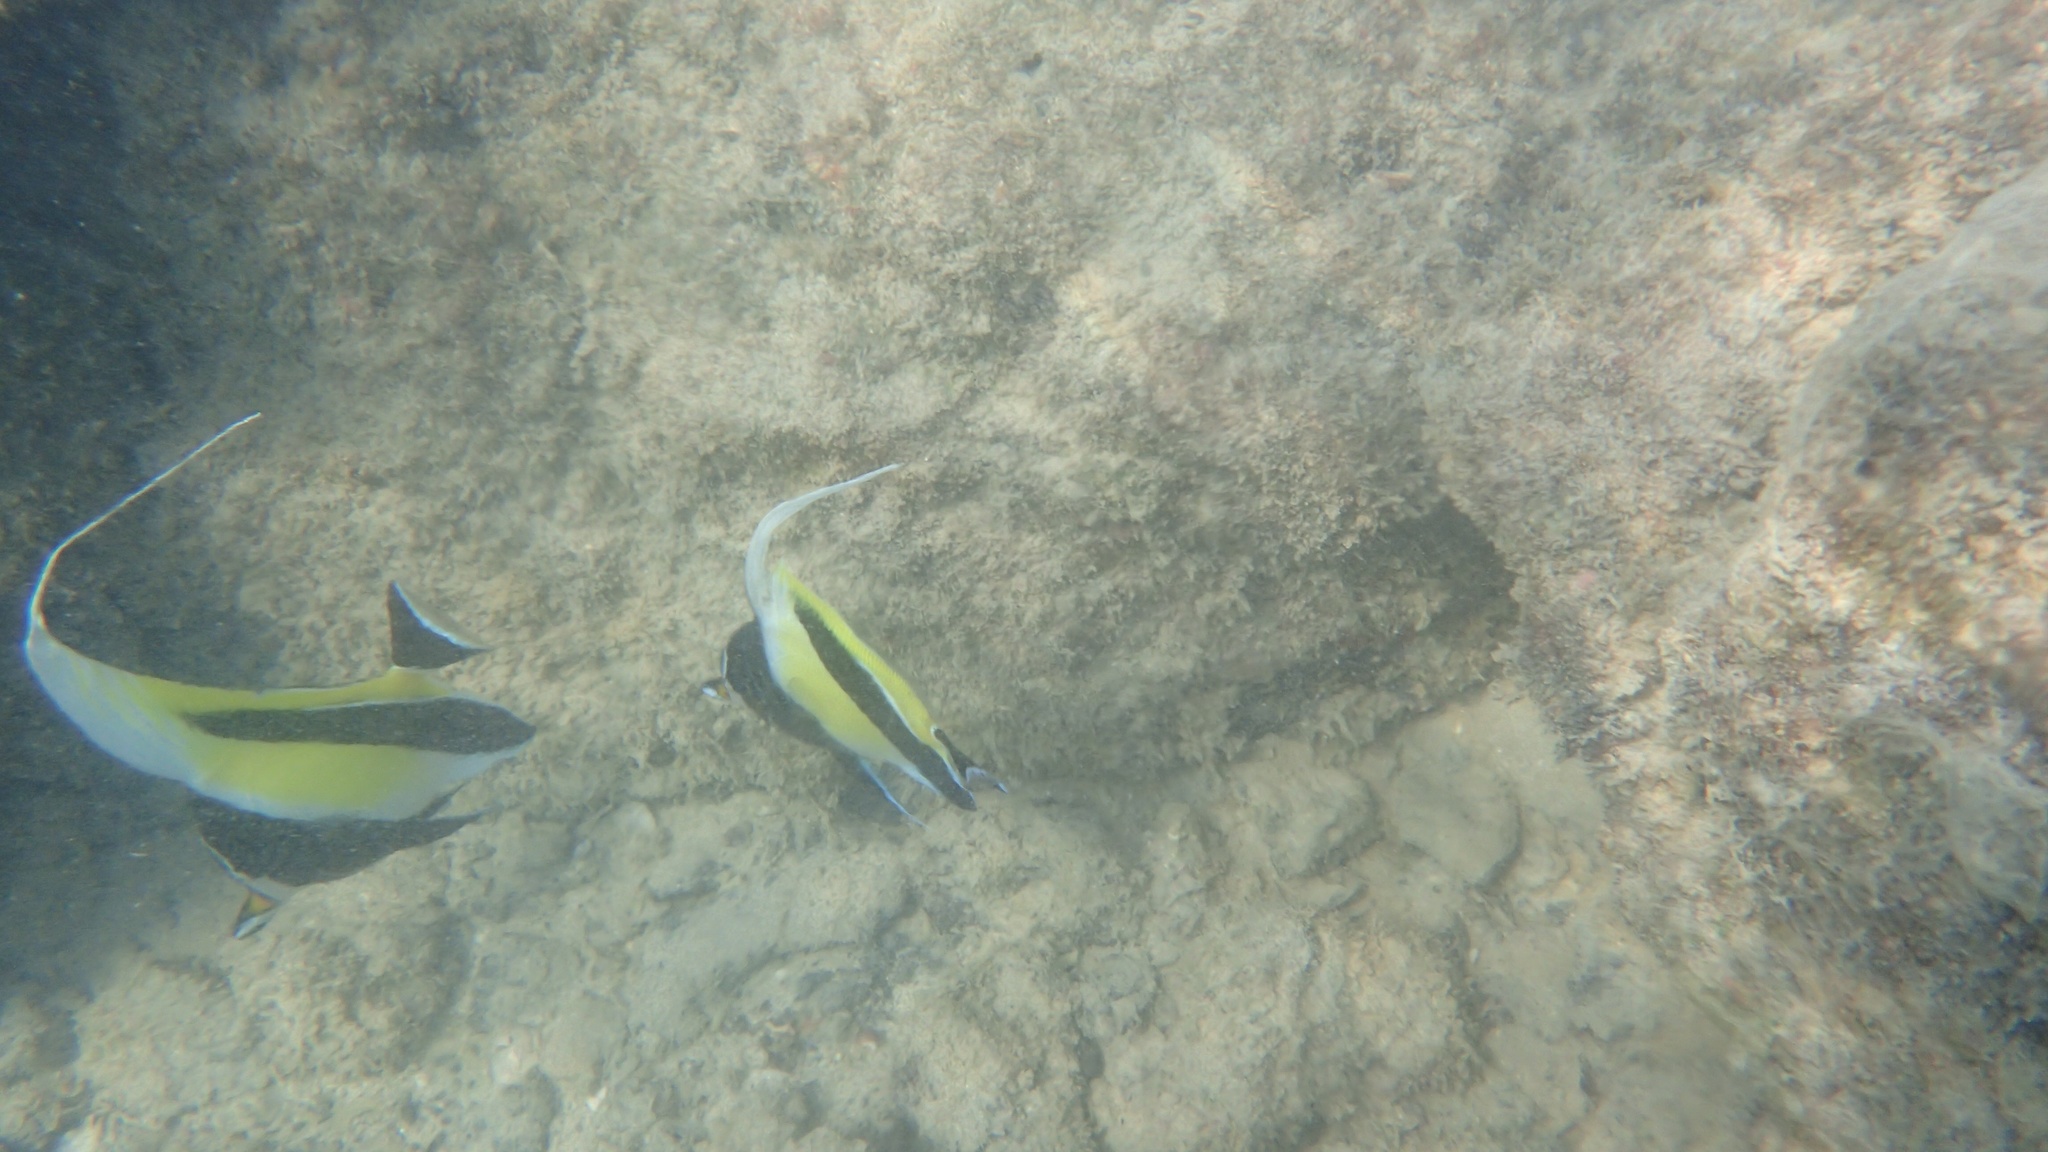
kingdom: Animalia
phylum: Chordata
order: Perciformes
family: Zanclidae
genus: Zanclus
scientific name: Zanclus cornutus
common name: Moorish idol
